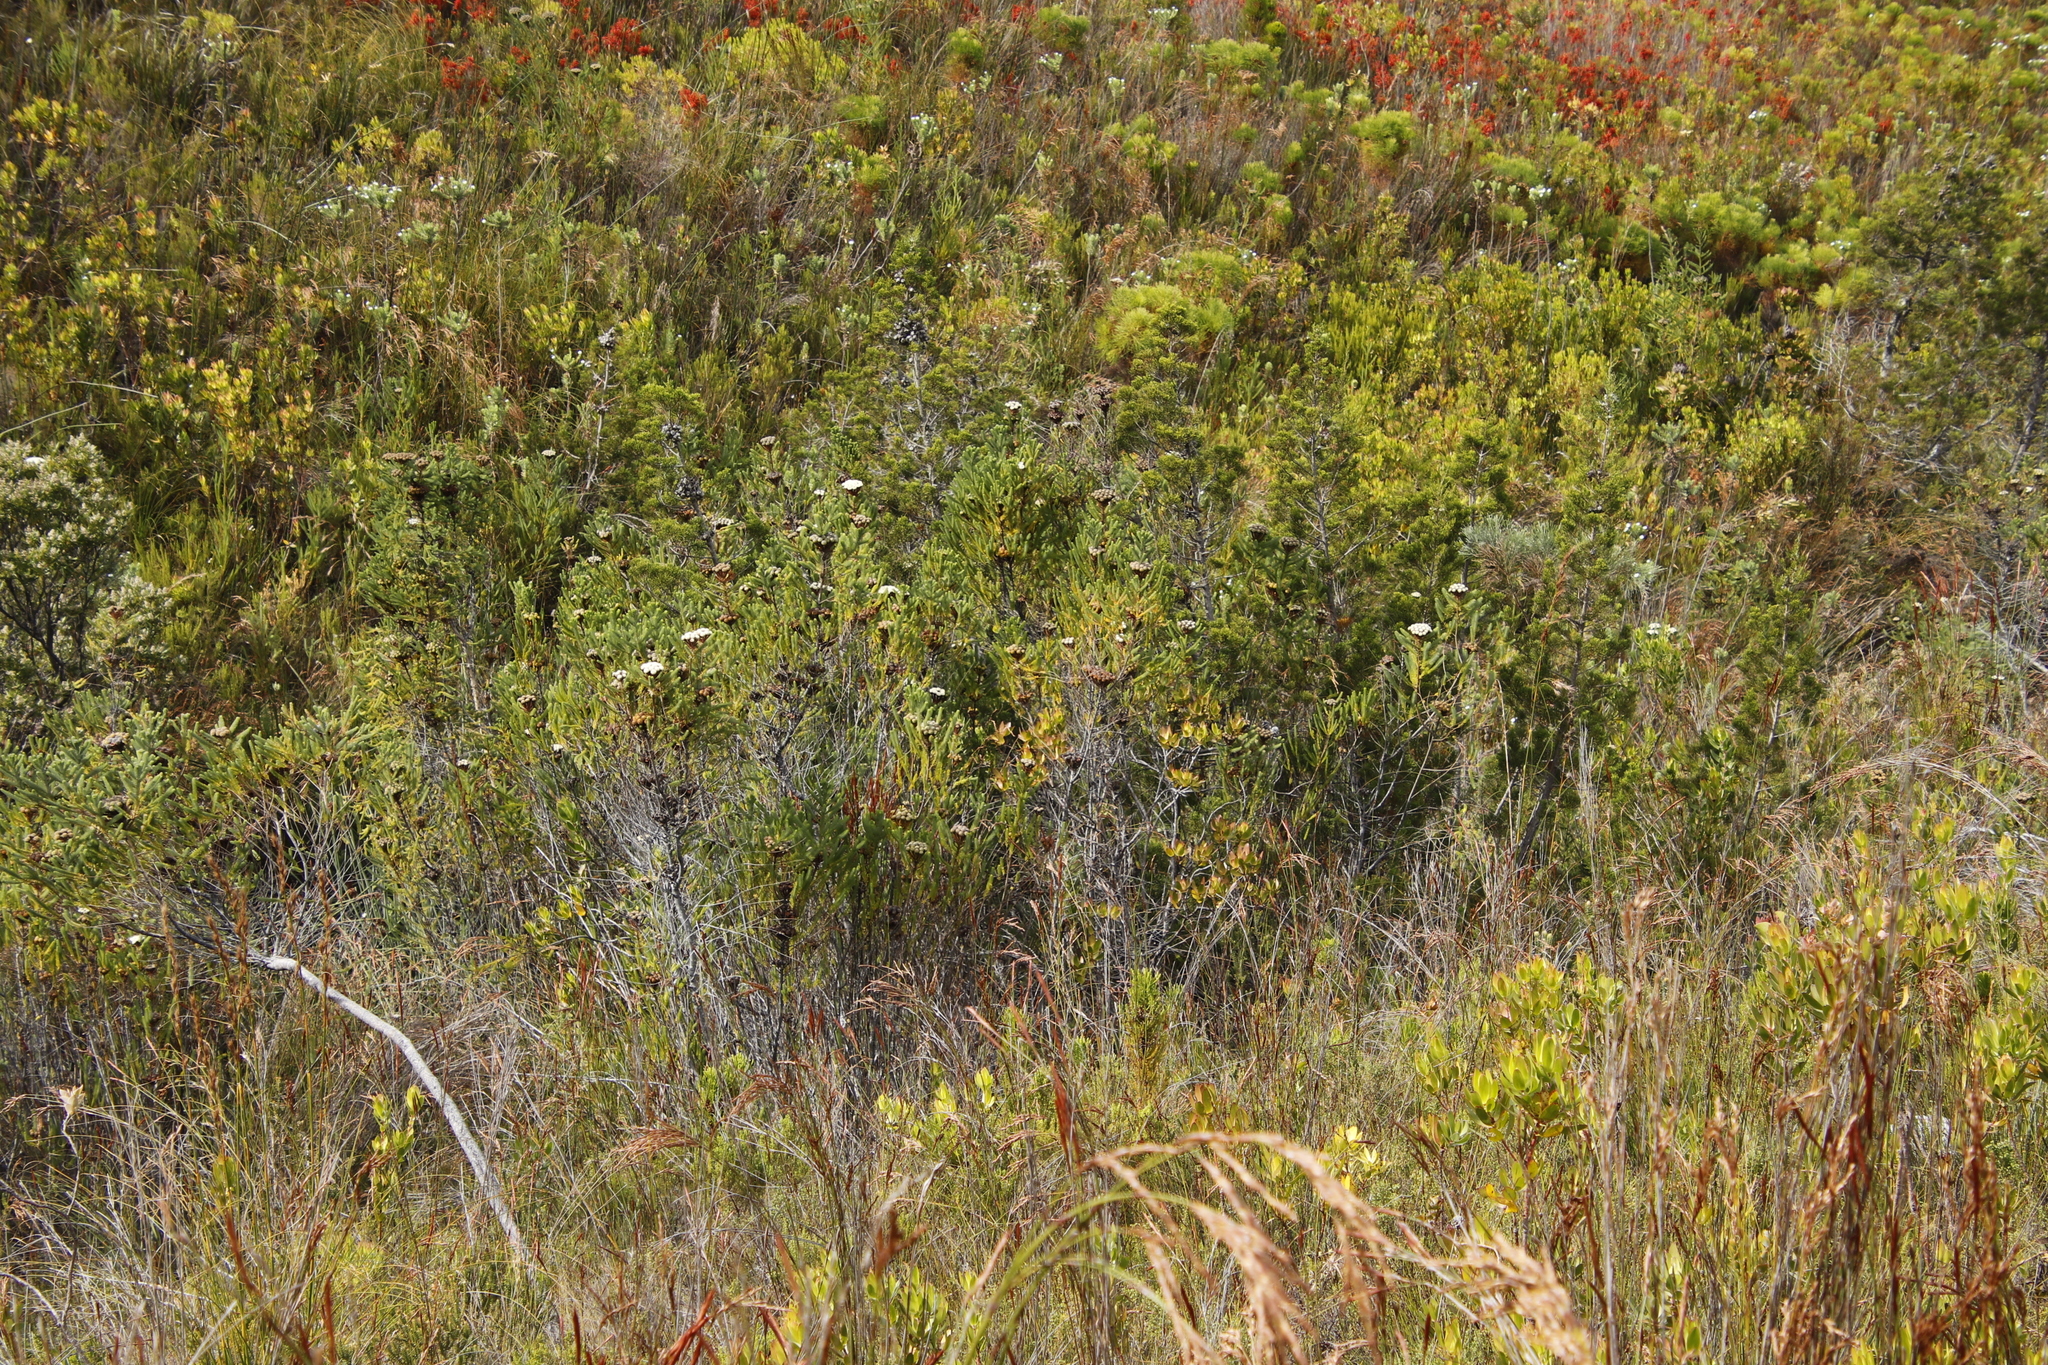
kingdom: Plantae
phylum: Tracheophyta
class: Magnoliopsida
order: Bruniales
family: Bruniaceae
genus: Berzelia
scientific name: Berzelia albiflora
